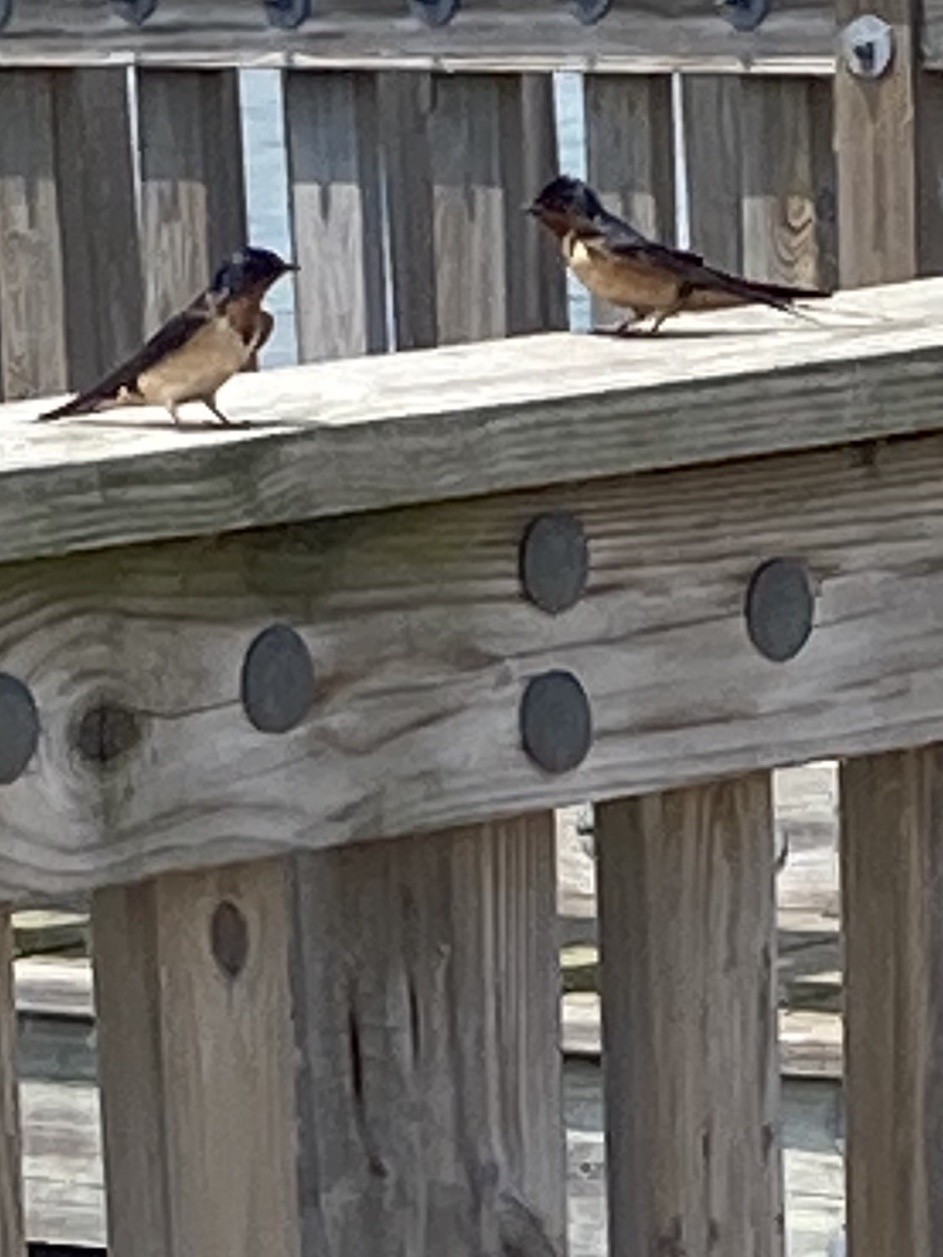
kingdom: Animalia
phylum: Chordata
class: Aves
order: Passeriformes
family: Hirundinidae
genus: Hirundo
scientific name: Hirundo rustica
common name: Barn swallow
